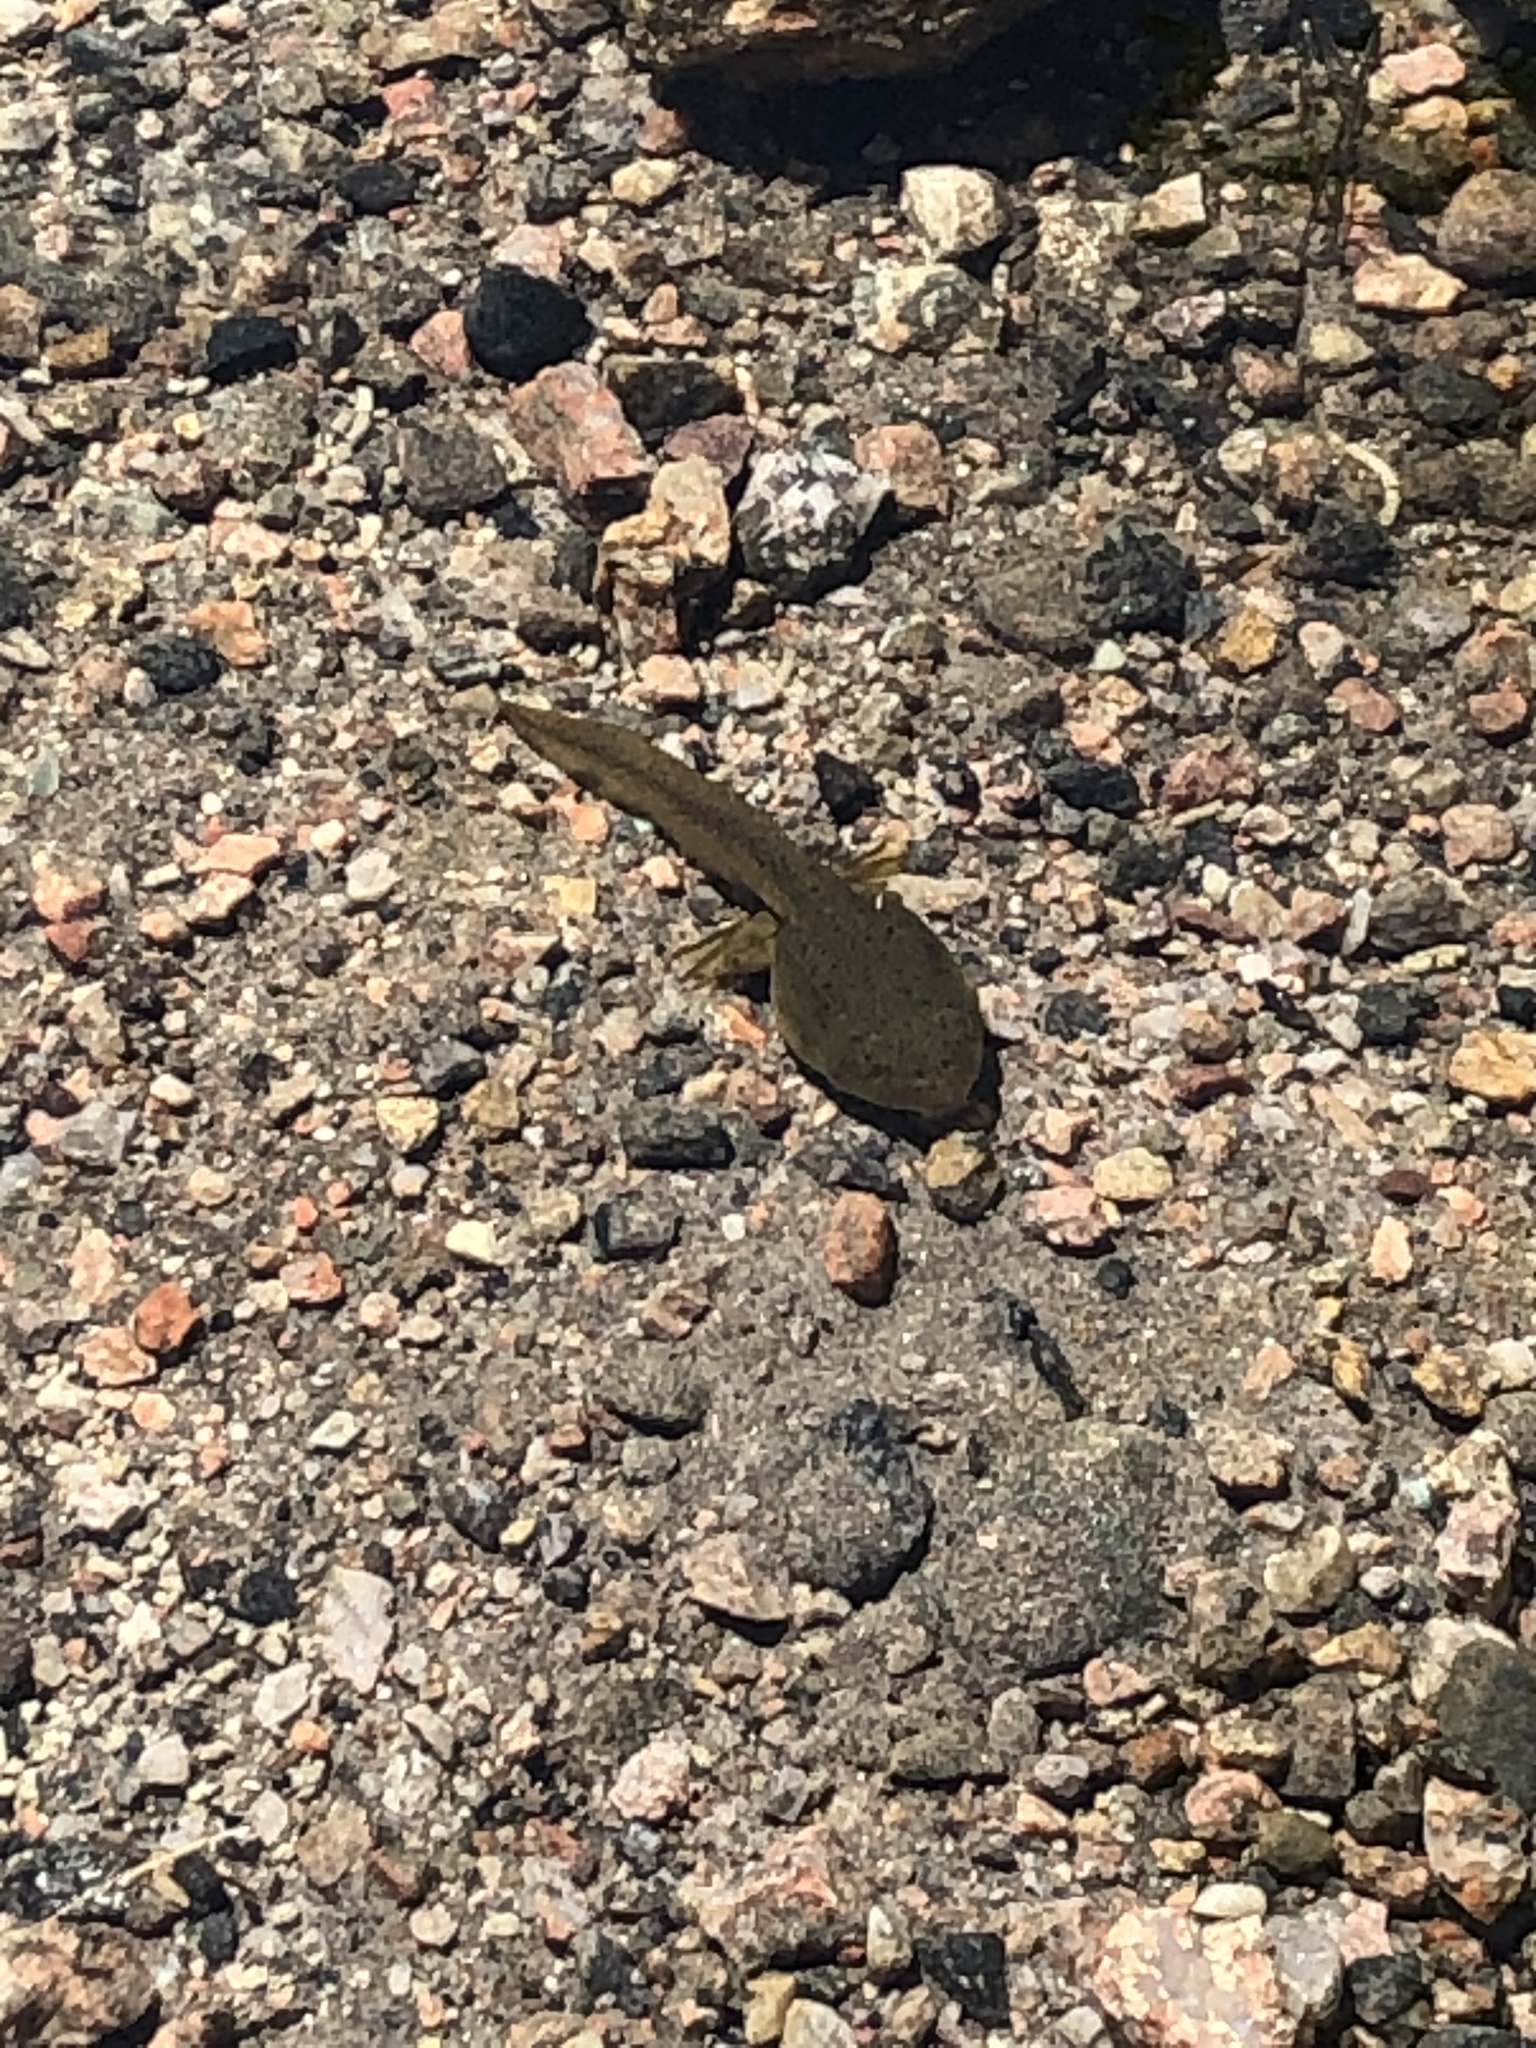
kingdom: Animalia
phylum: Chordata
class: Amphibia
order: Anura
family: Ranidae
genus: Lithobates
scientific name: Lithobates catesbeianus
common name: American bullfrog
